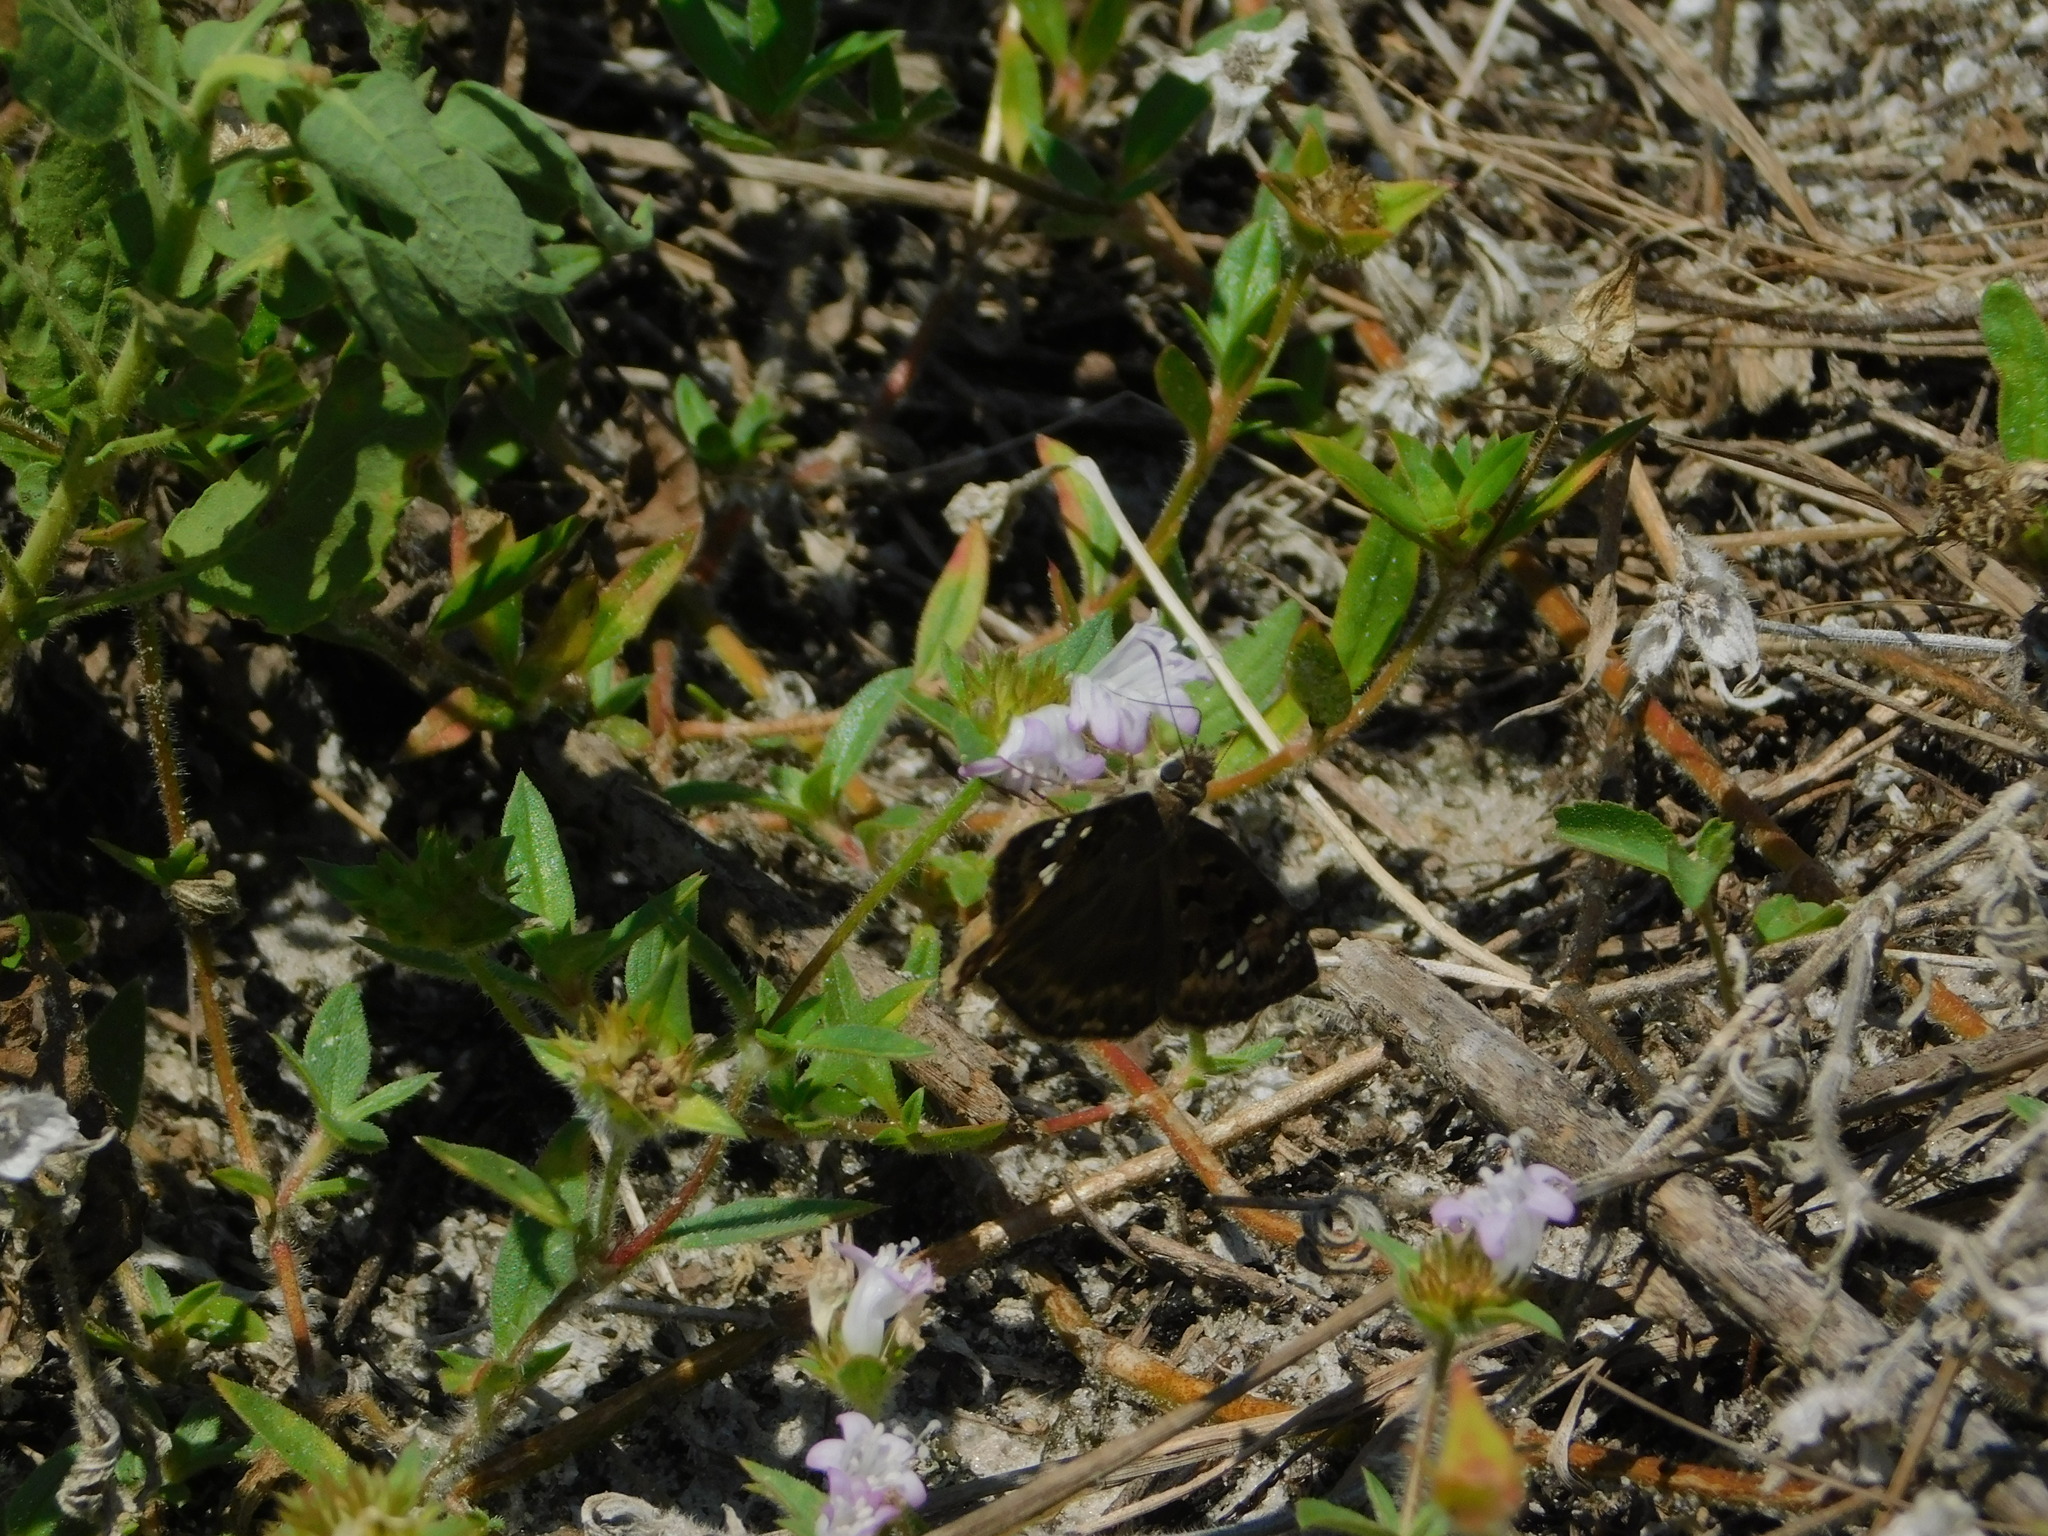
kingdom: Animalia
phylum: Arthropoda
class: Insecta
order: Lepidoptera
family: Hesperiidae
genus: Erynnis
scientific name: Erynnis horatius
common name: Horace's duskywing
